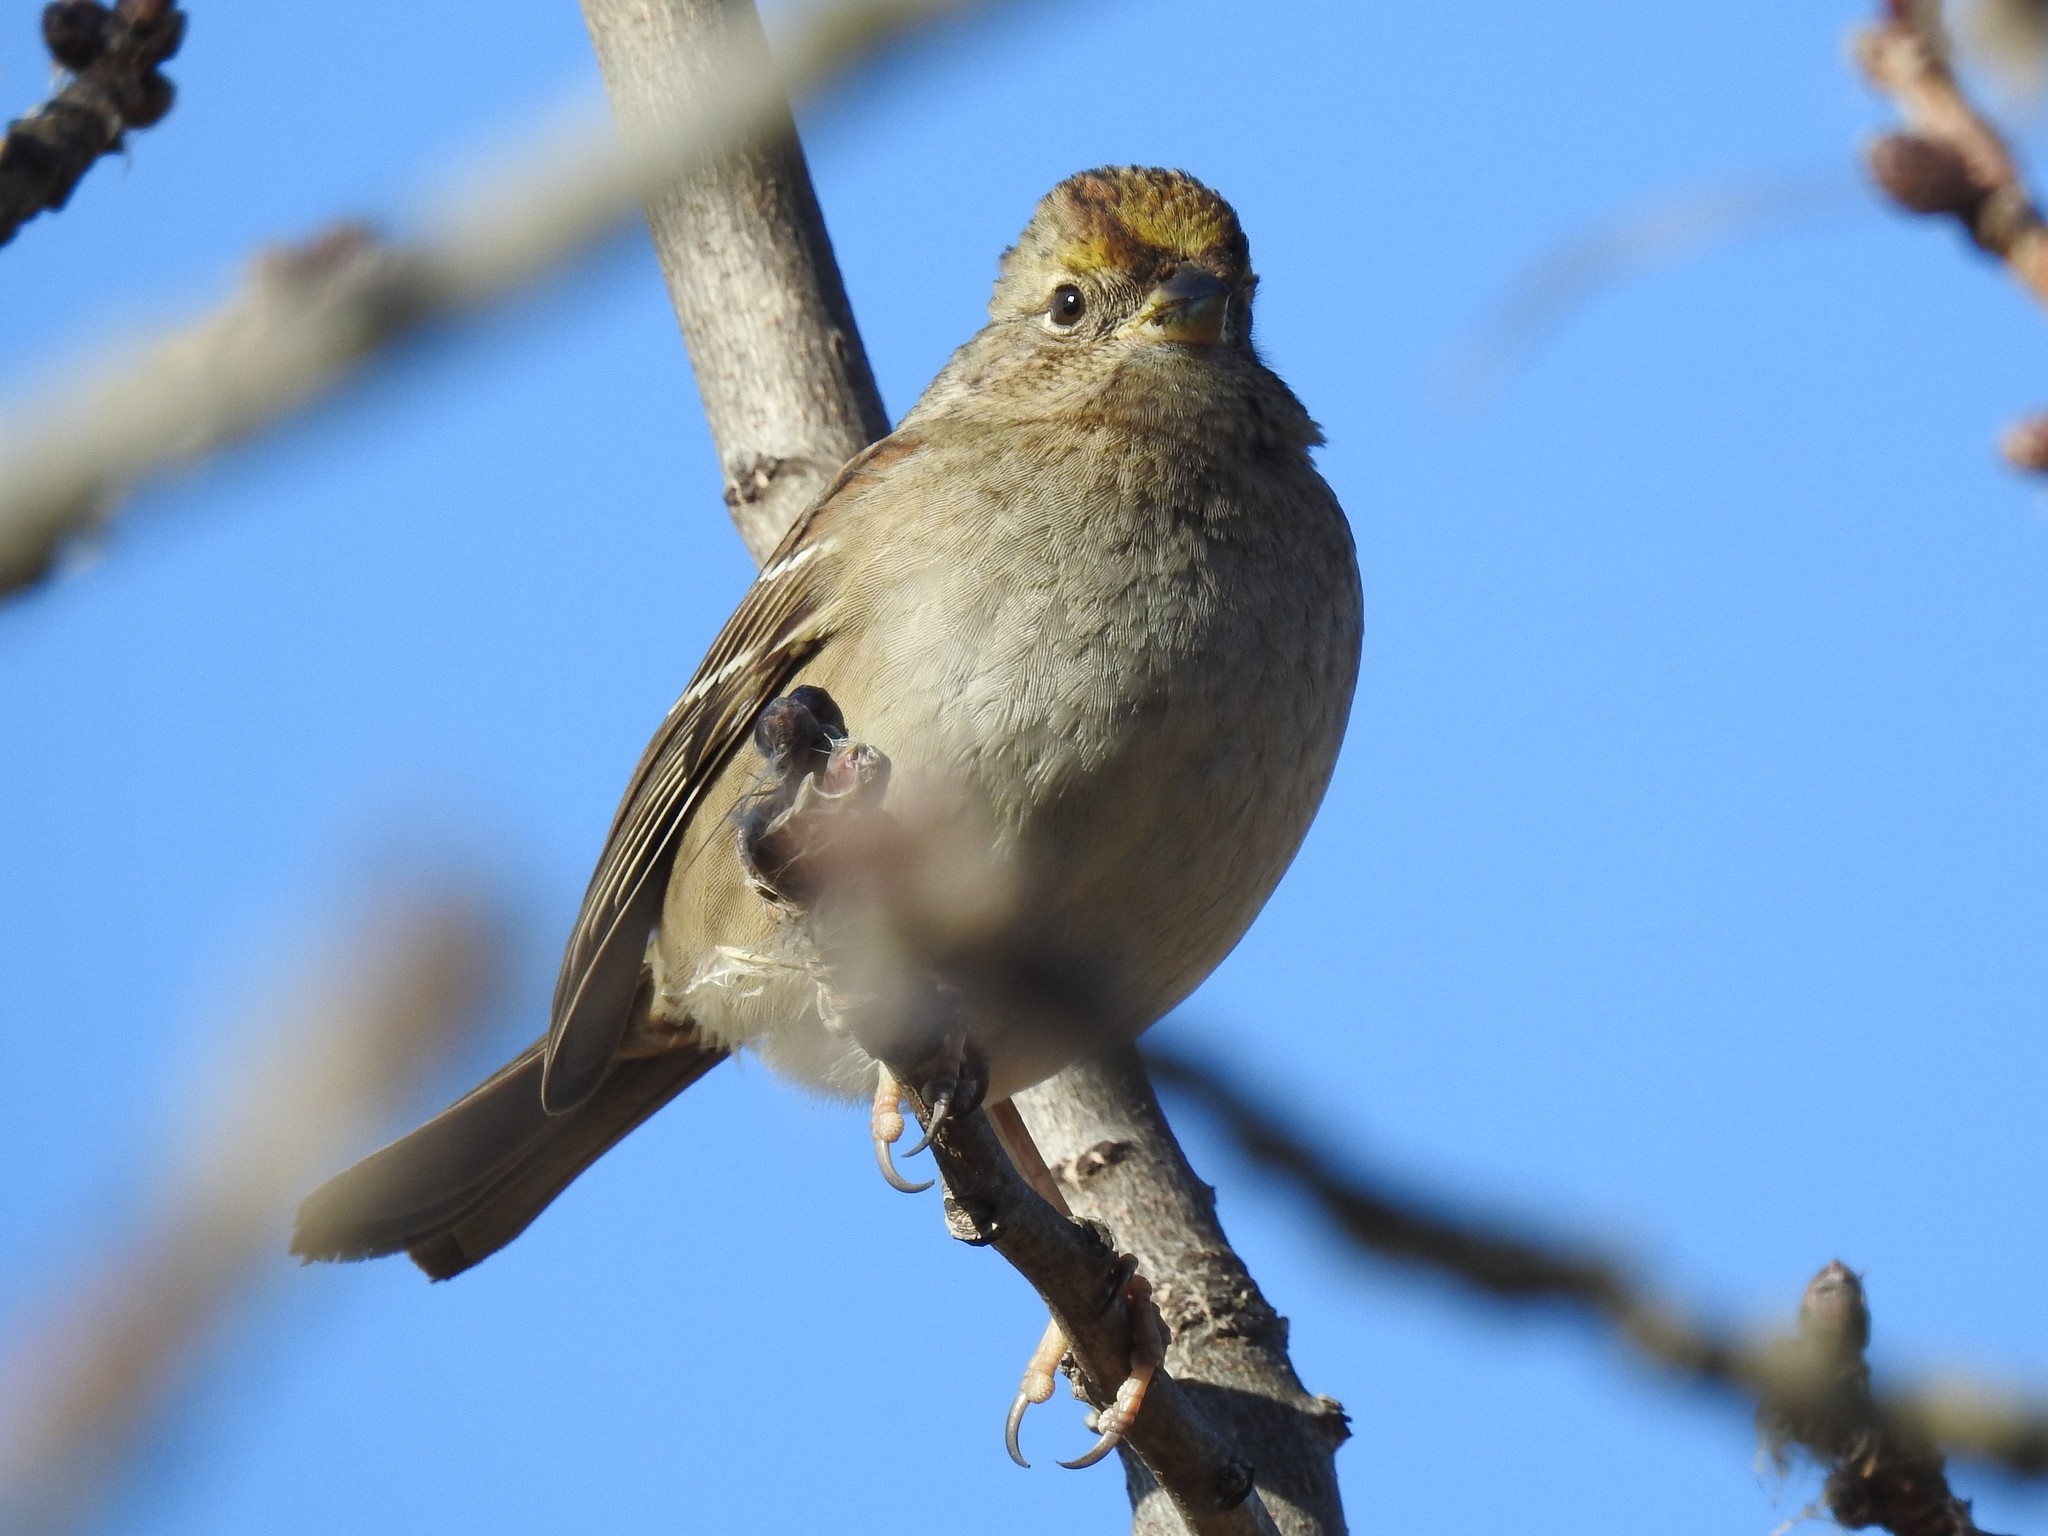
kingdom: Animalia
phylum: Chordata
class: Aves
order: Passeriformes
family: Passerellidae
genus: Zonotrichia
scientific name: Zonotrichia atricapilla
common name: Golden-crowned sparrow
